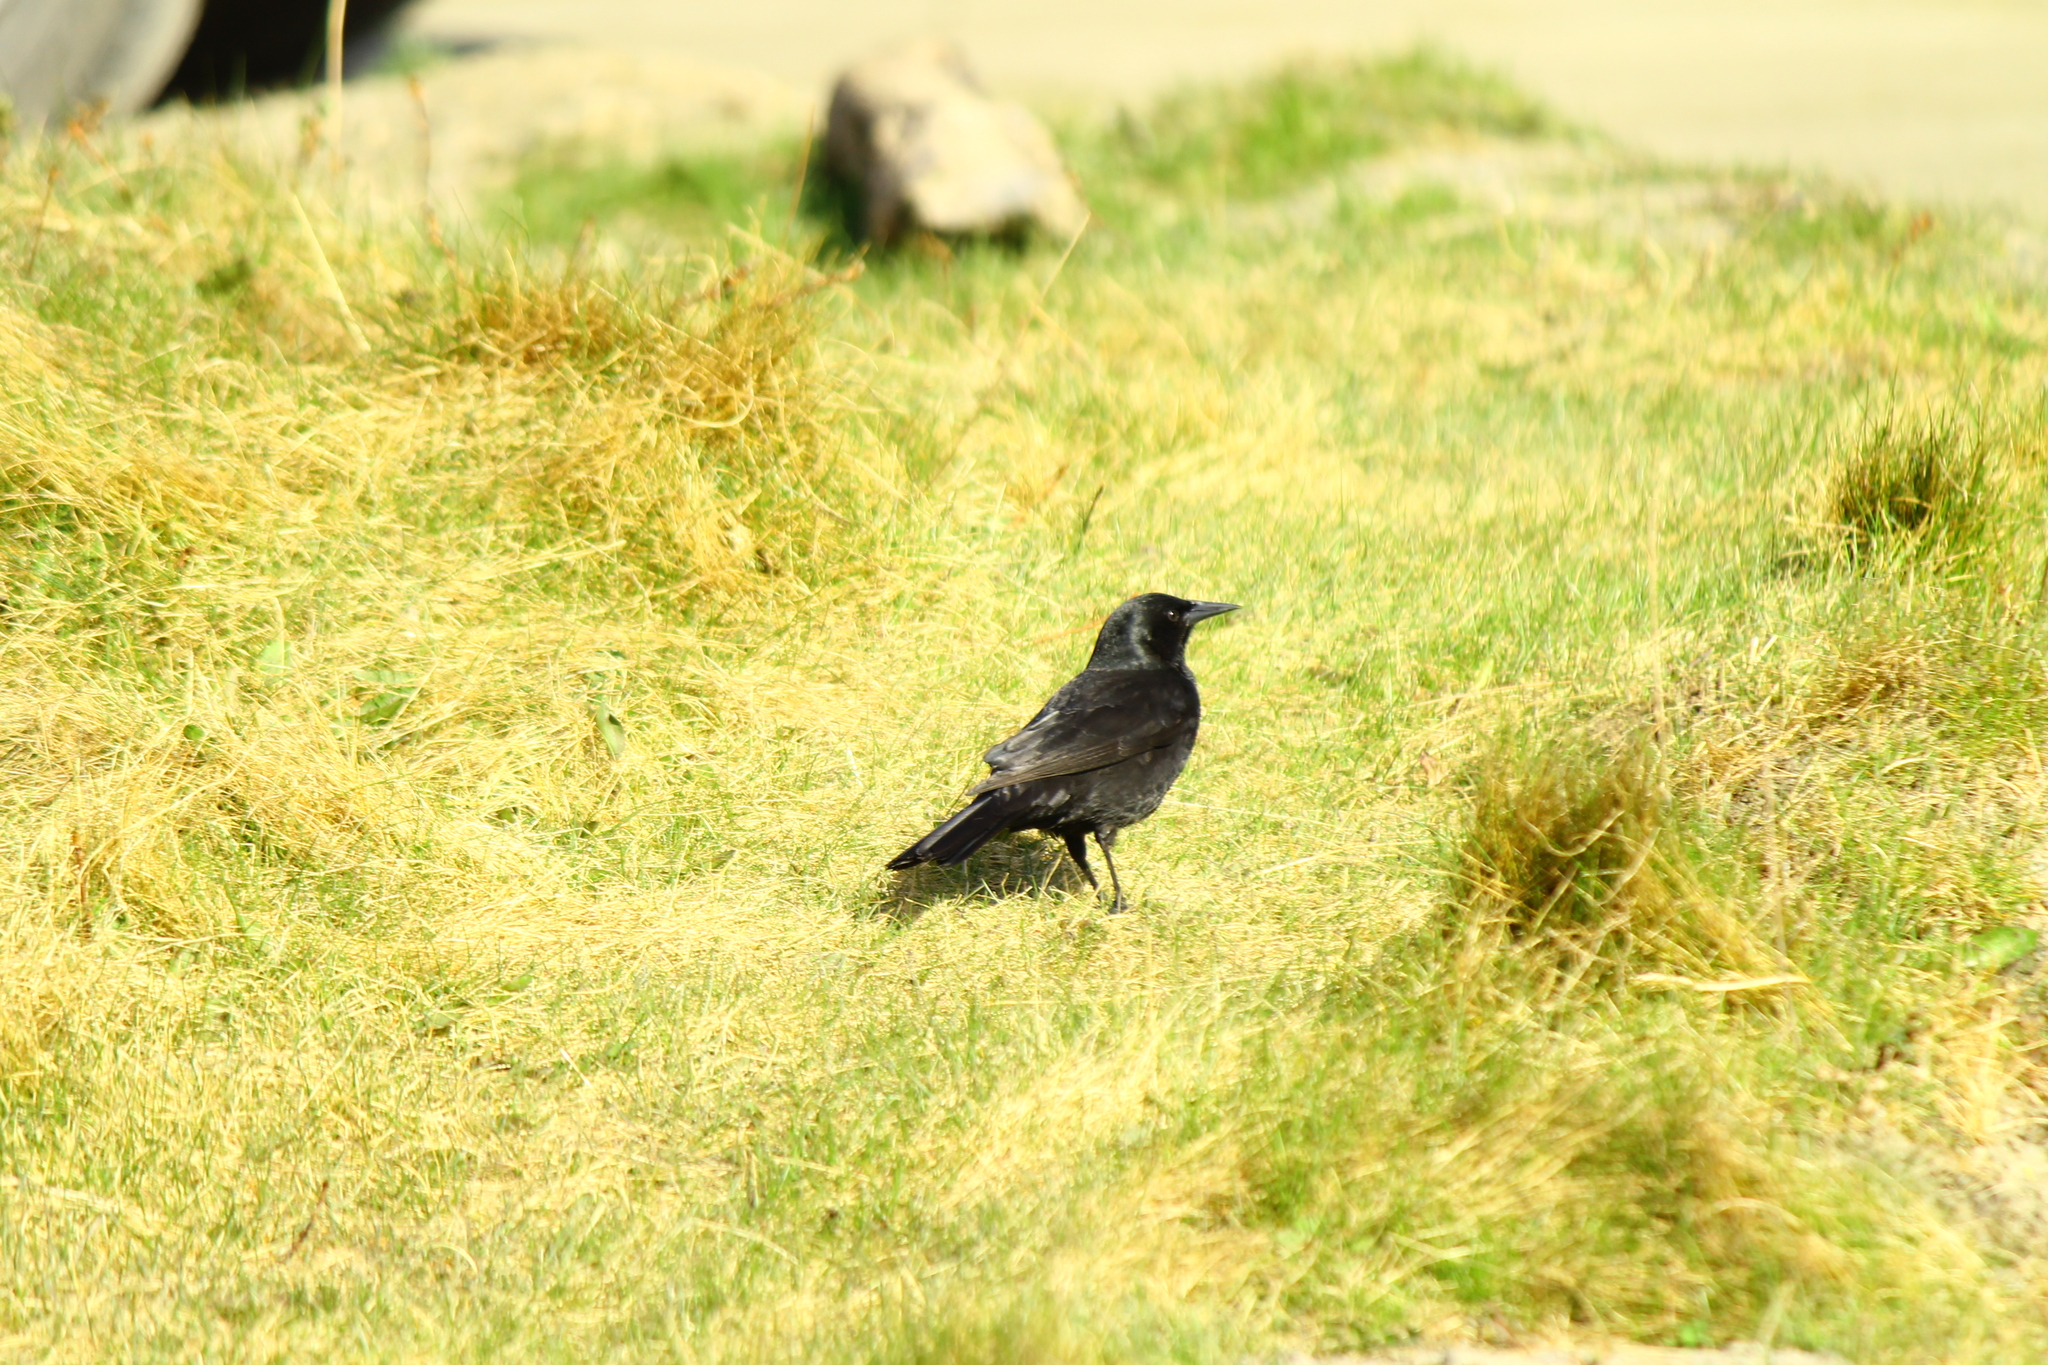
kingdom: Animalia
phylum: Chordata
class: Aves
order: Passeriformes
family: Icteridae
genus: Curaeus
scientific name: Curaeus curaeus
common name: Austral blackbird
